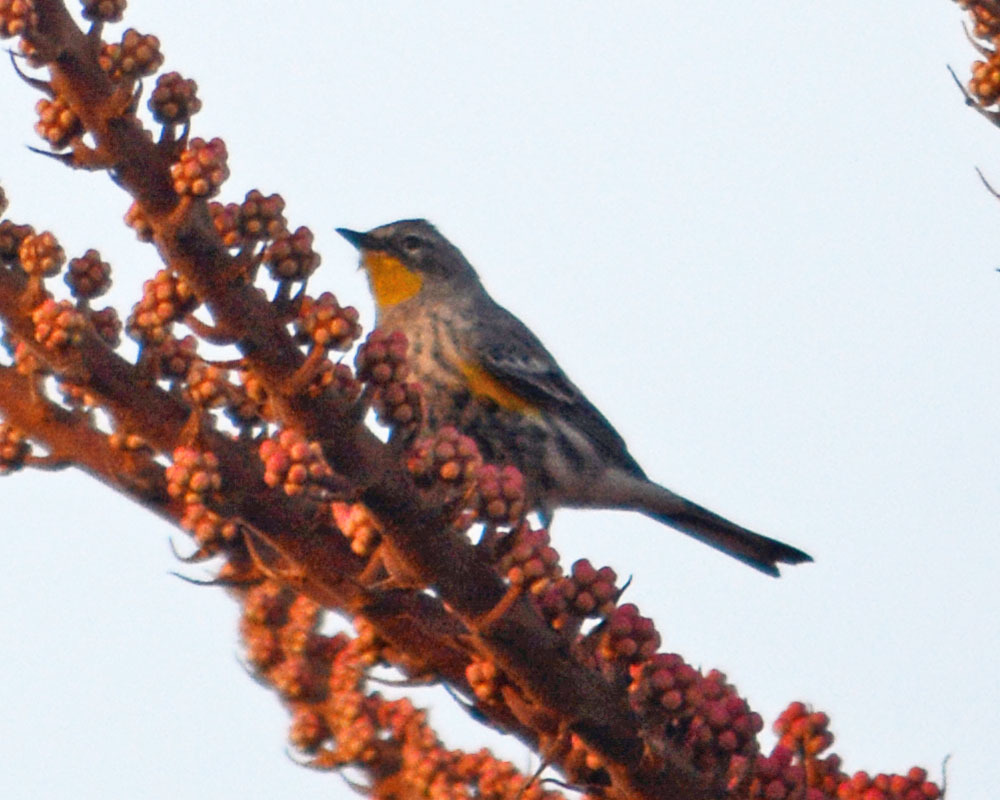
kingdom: Animalia
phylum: Chordata
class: Aves
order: Passeriformes
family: Parulidae
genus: Setophaga
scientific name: Setophaga auduboni
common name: Audubon's warbler
